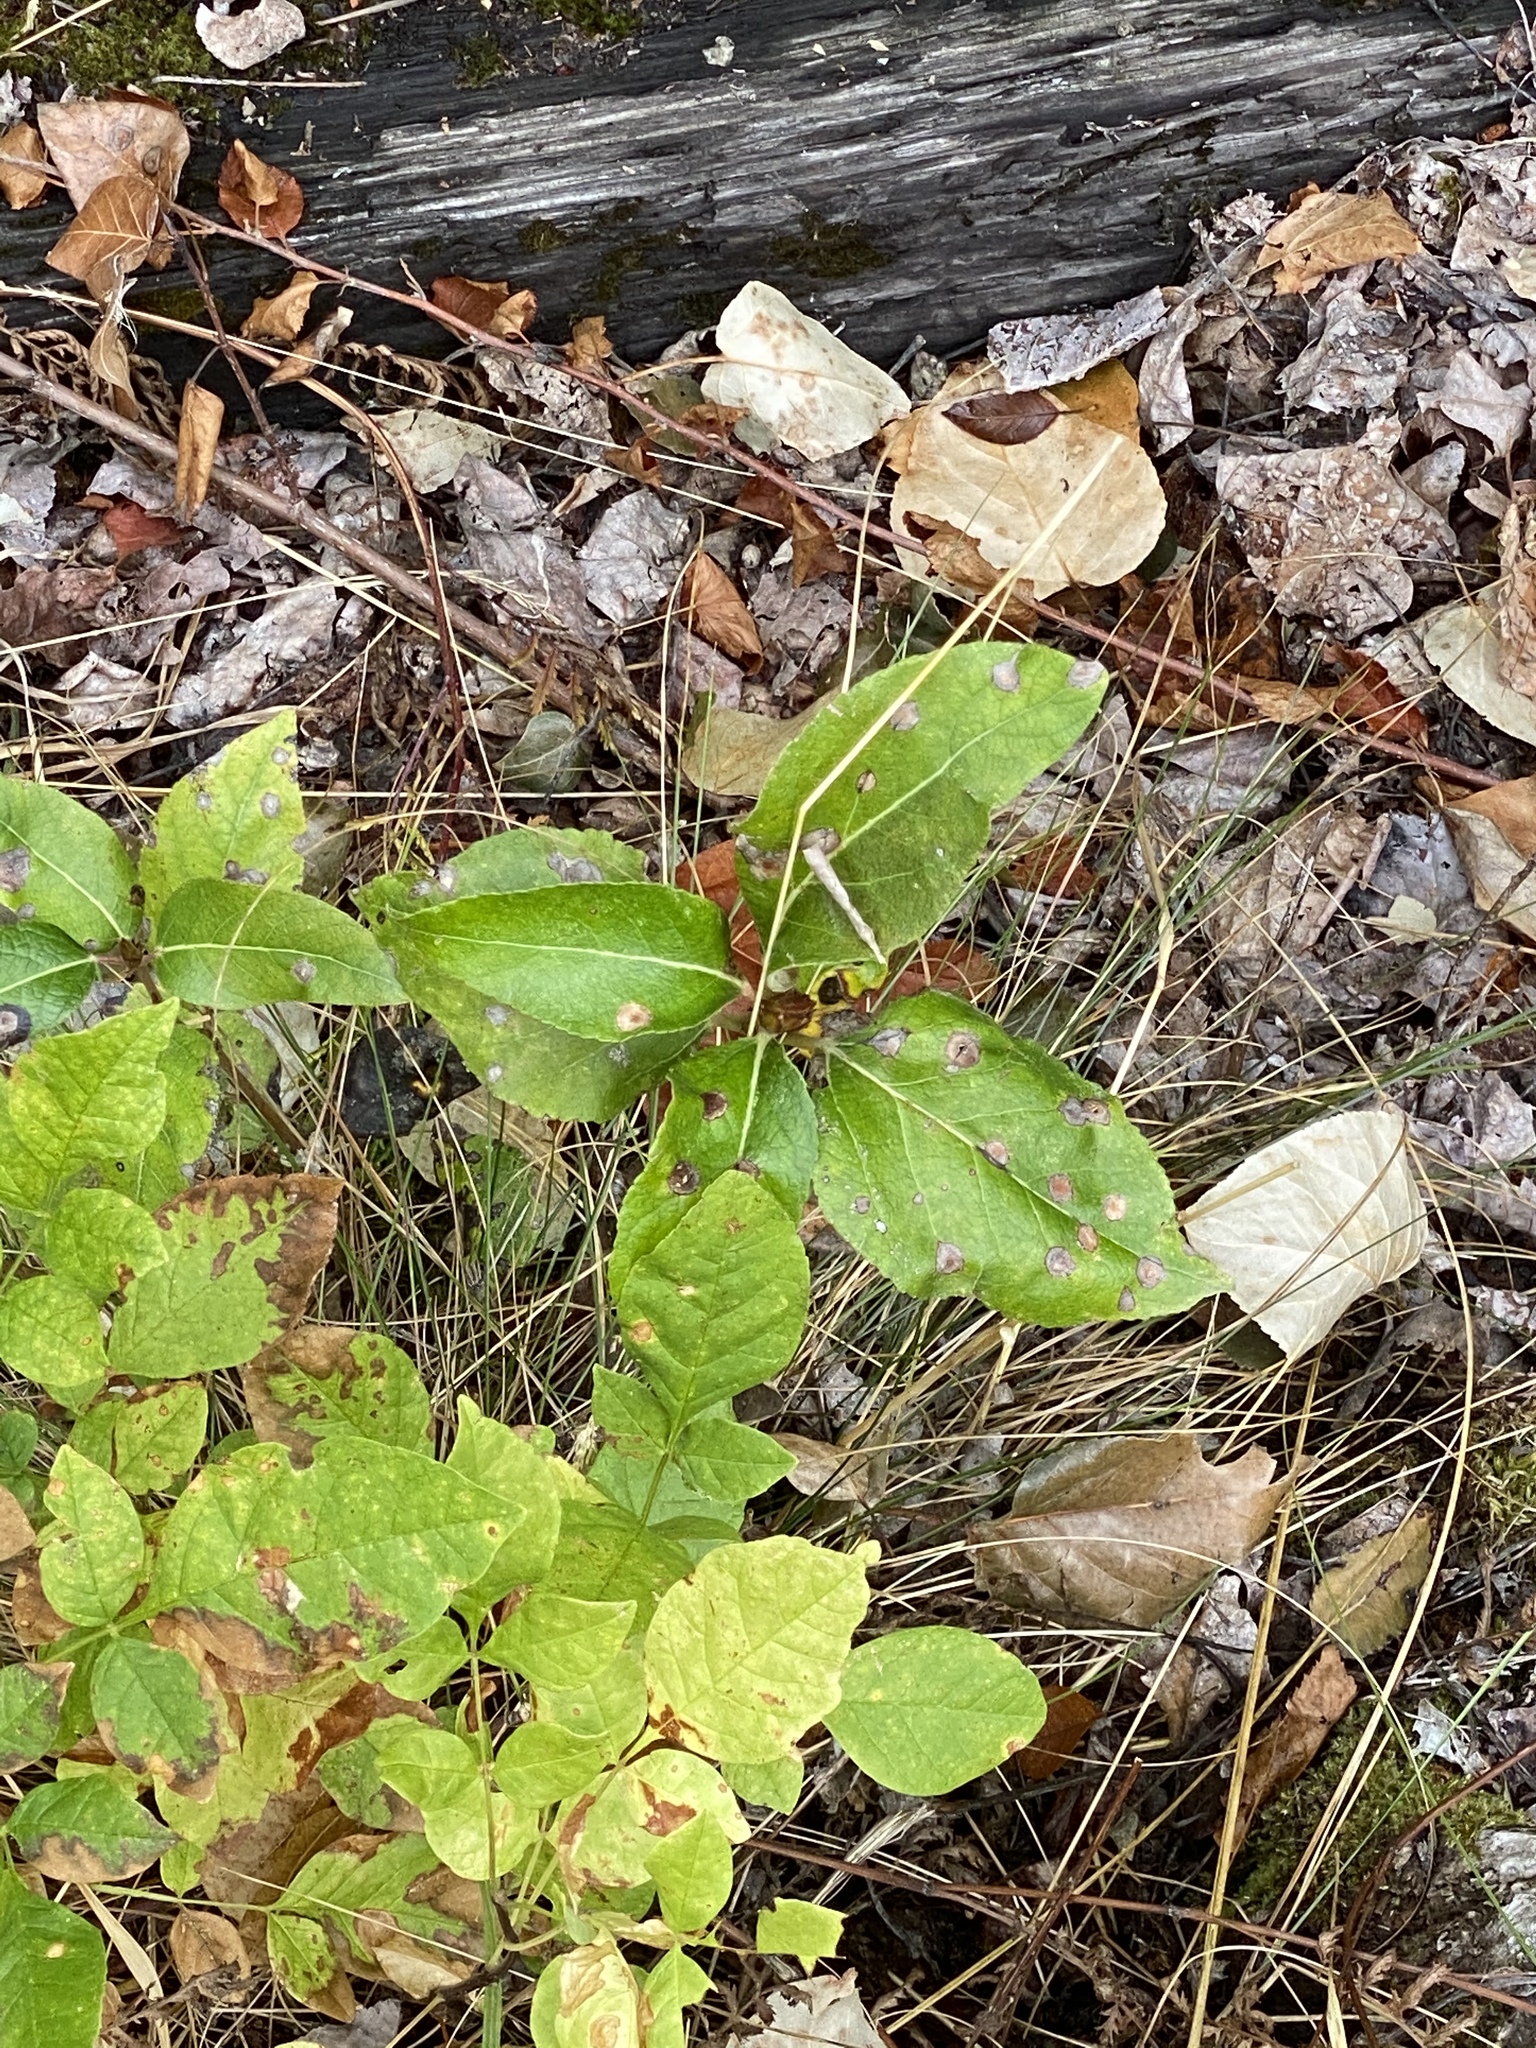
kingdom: Plantae
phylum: Tracheophyta
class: Magnoliopsida
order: Ericales
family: Ericaceae
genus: Gaultheria
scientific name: Gaultheria shallon
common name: Shallon
